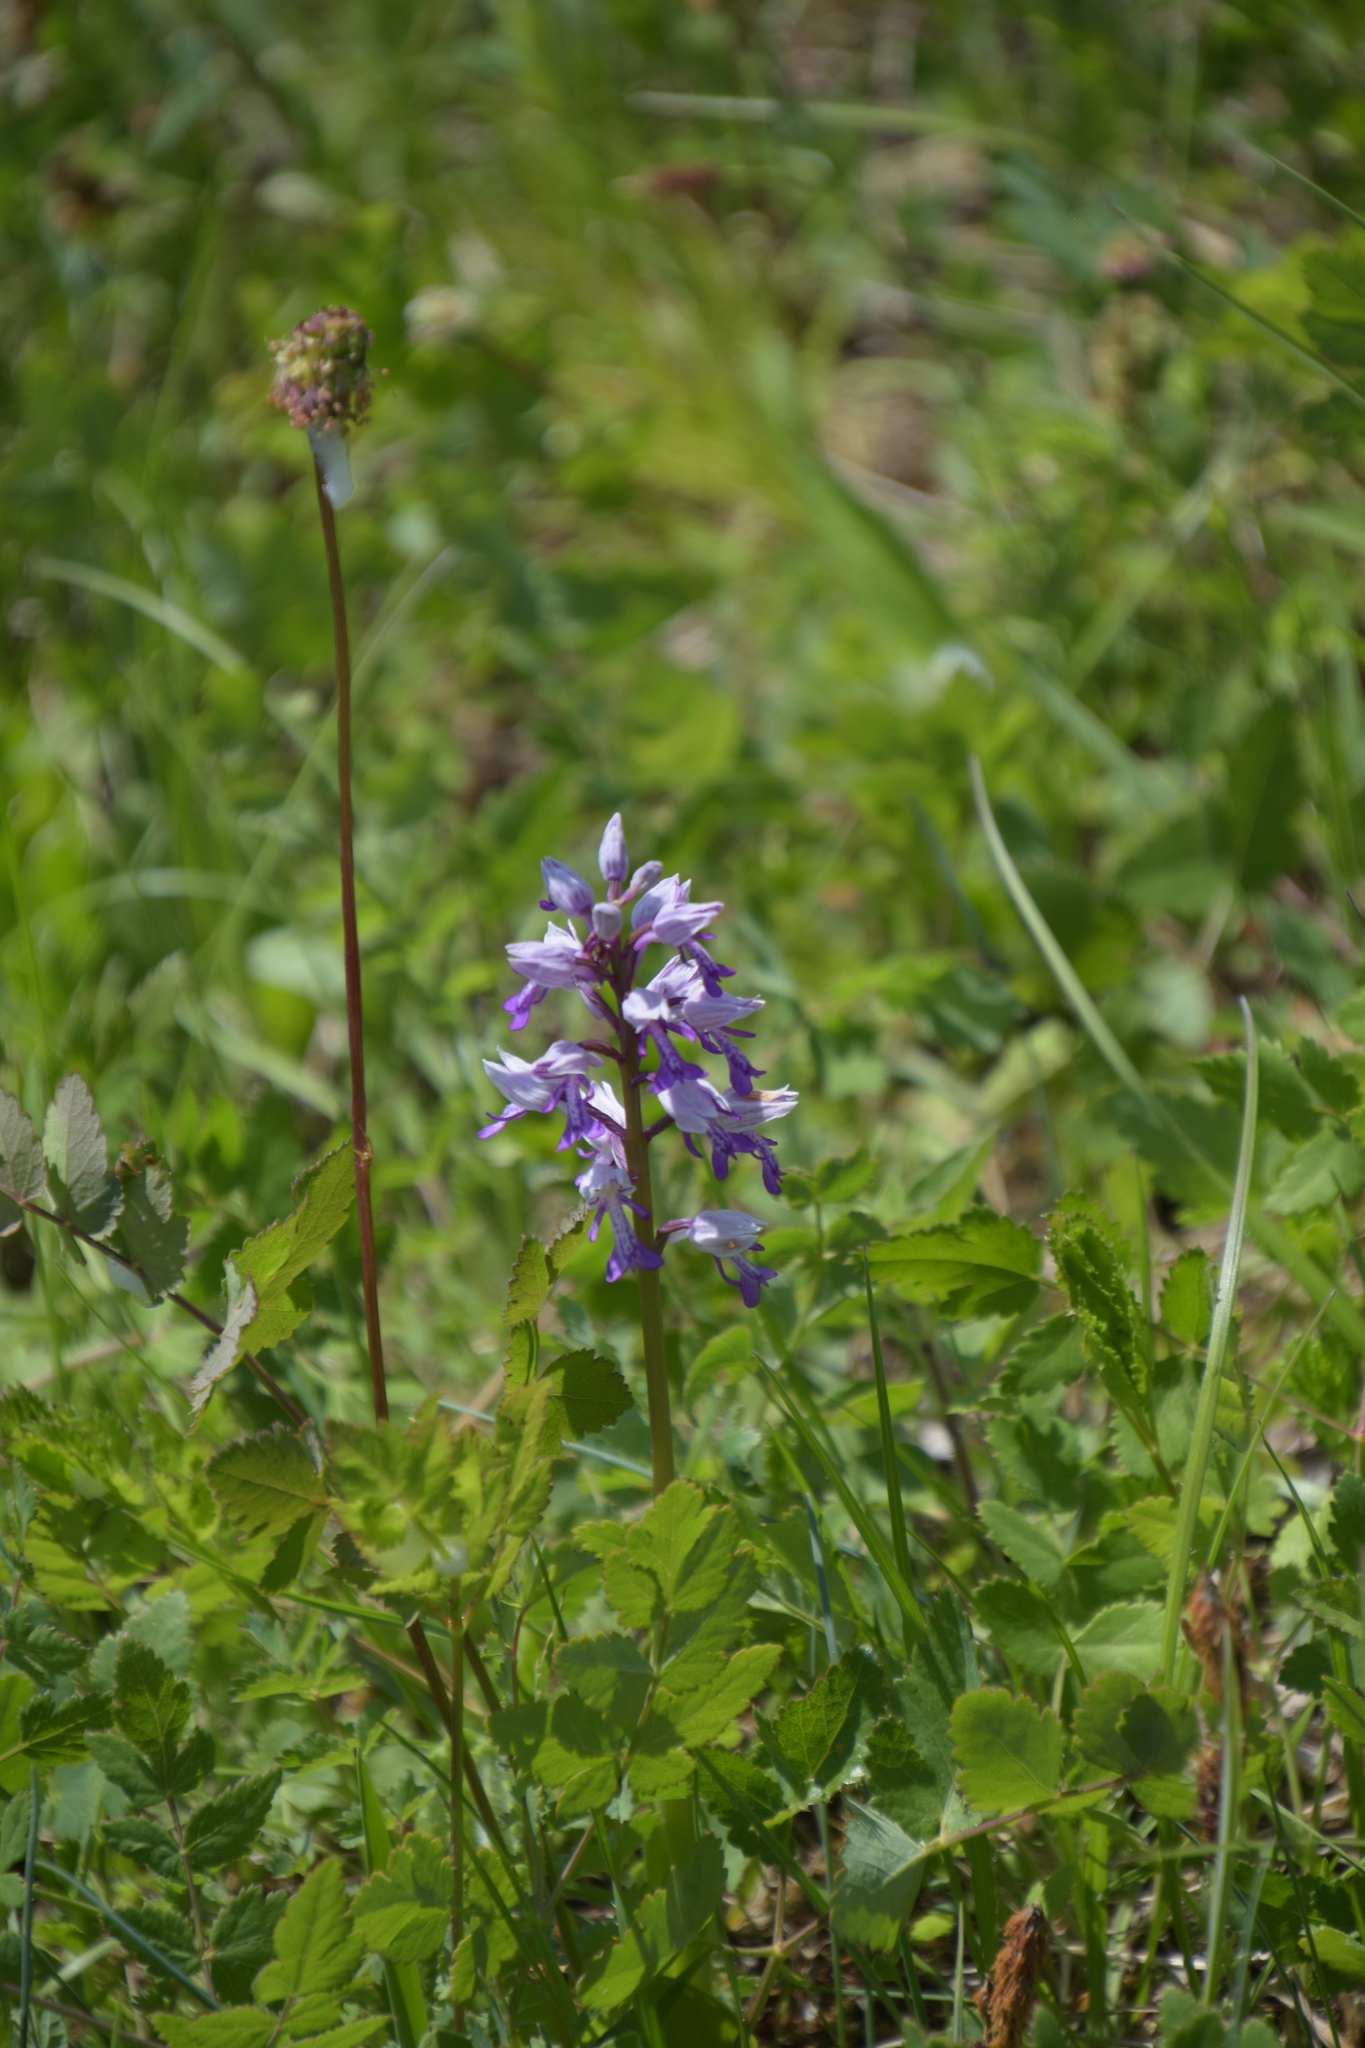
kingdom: Plantae
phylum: Tracheophyta
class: Liliopsida
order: Asparagales
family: Orchidaceae
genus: Orchis
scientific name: Orchis militaris
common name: Military orchid
